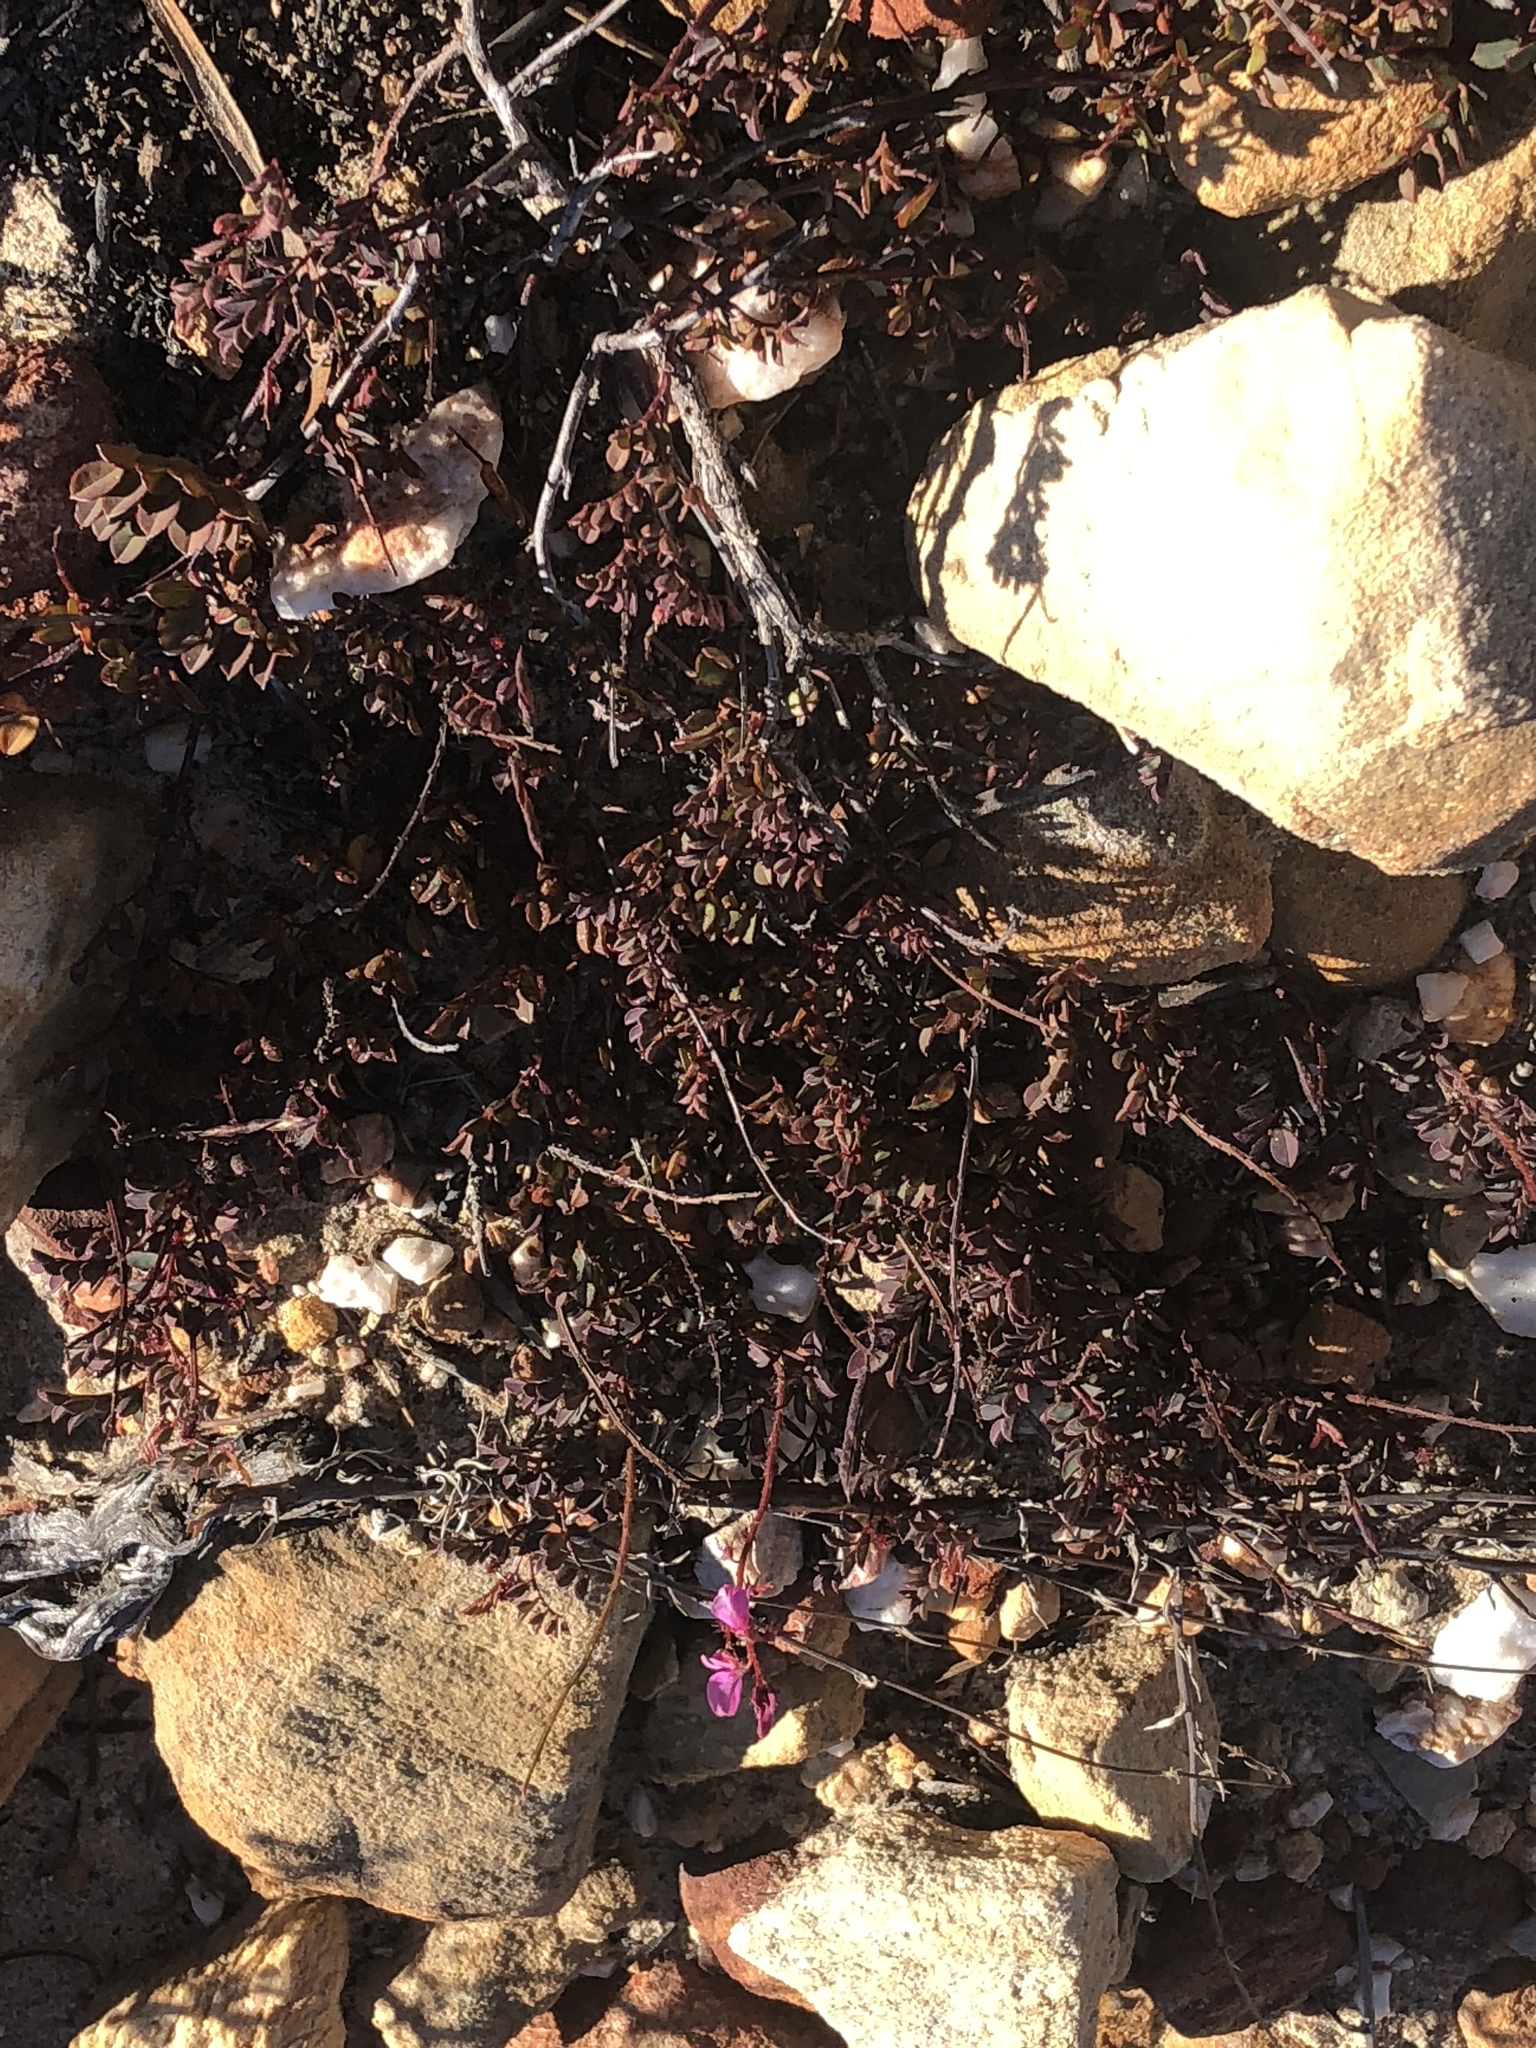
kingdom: Plantae
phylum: Tracheophyta
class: Magnoliopsida
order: Fabales
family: Fabaceae
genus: Indigofera
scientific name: Indigofera
